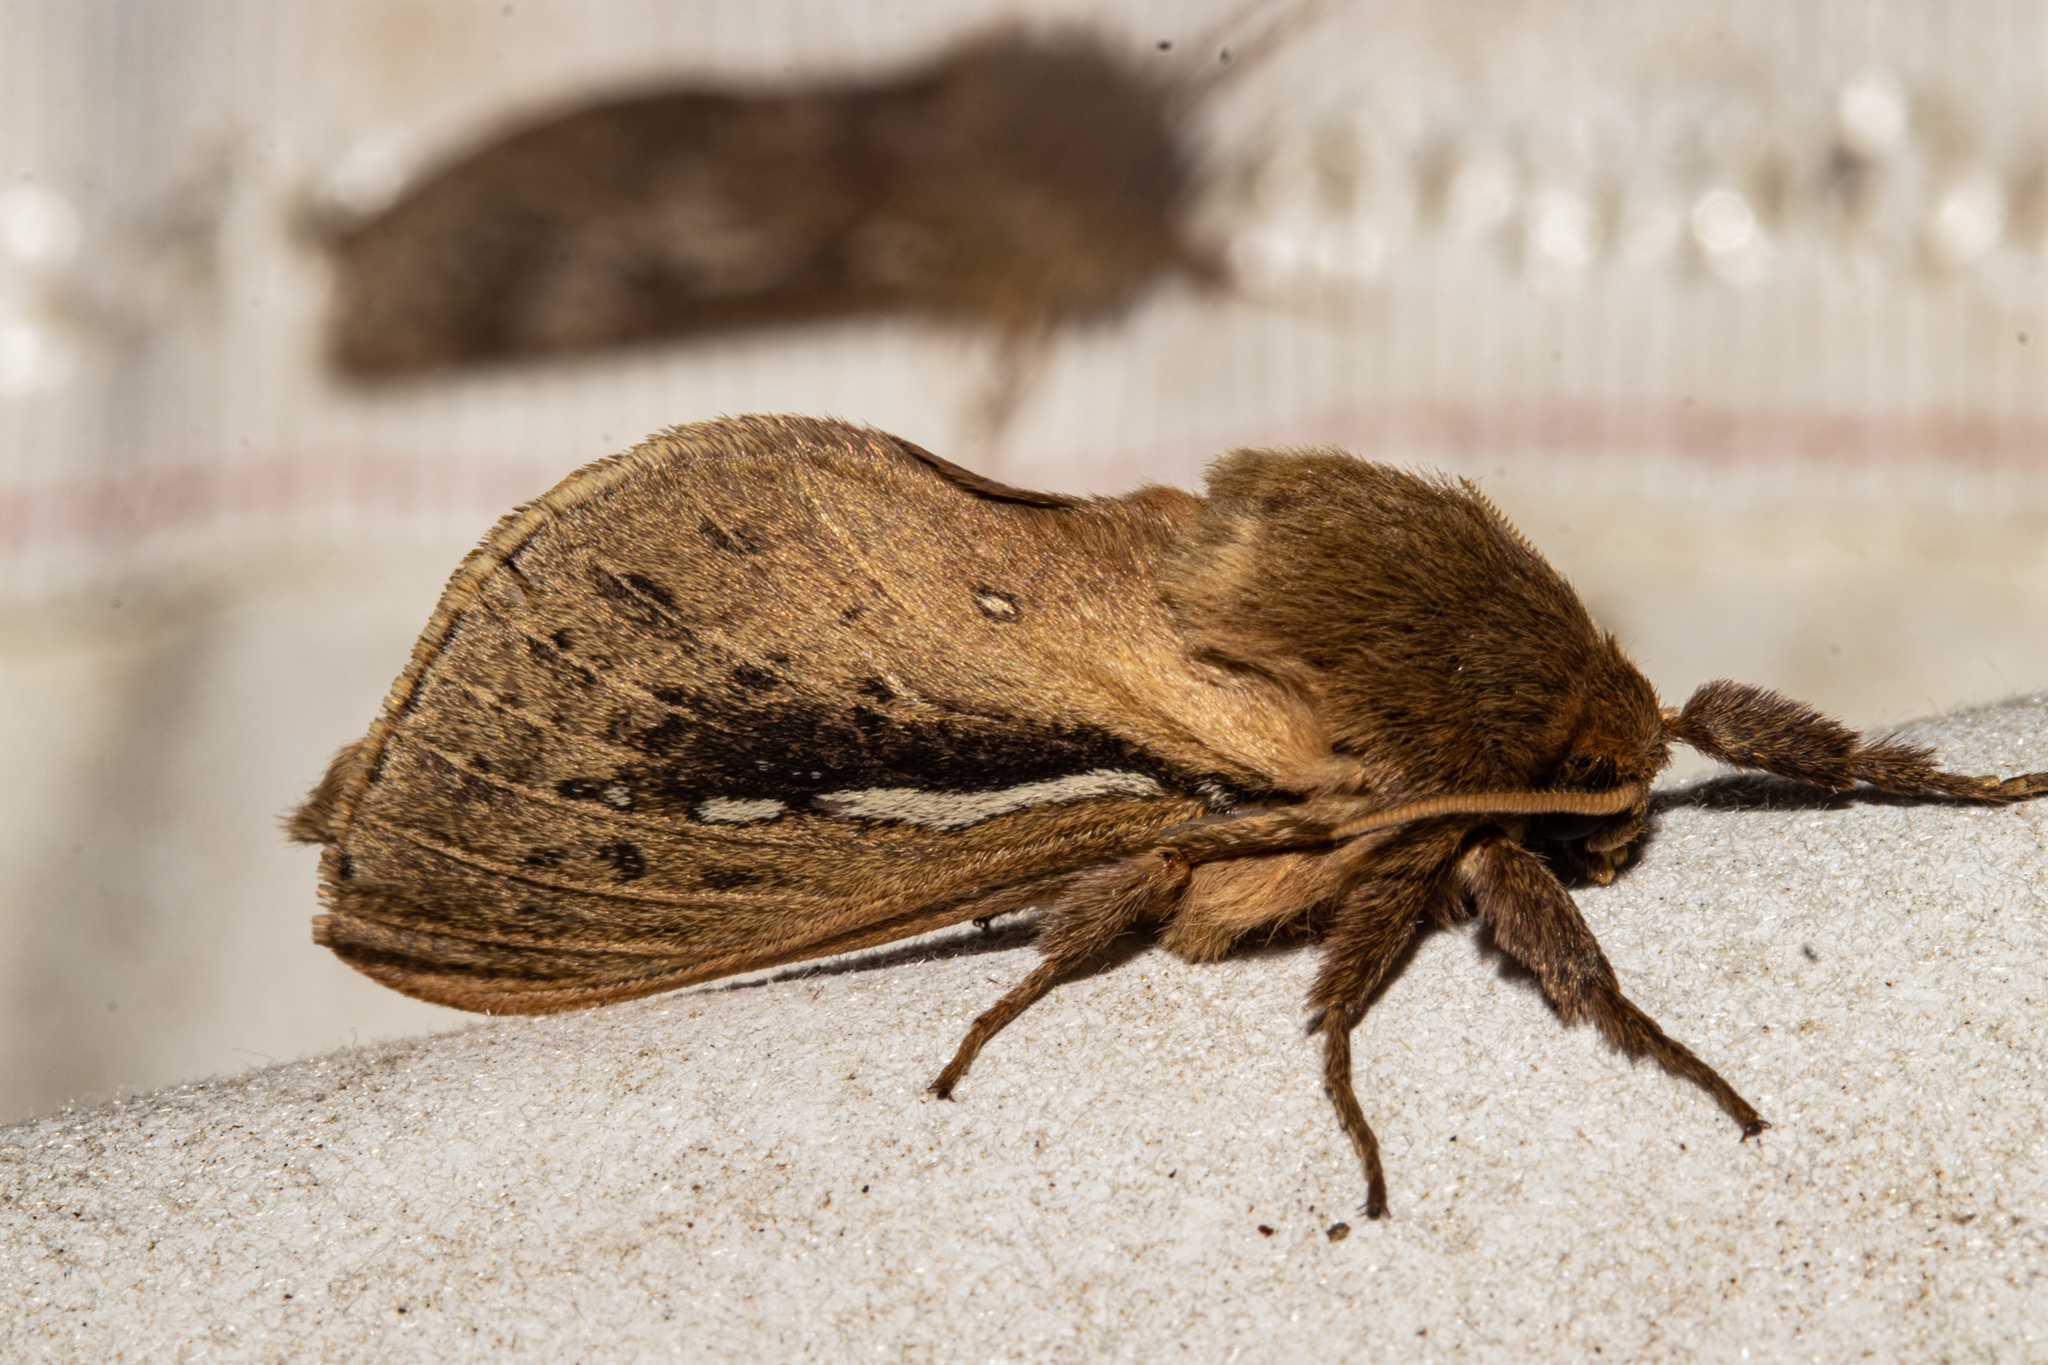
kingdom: Animalia
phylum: Arthropoda
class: Insecta
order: Lepidoptera
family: Hepialidae
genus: Wiseana
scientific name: Wiseana umbraculatus
